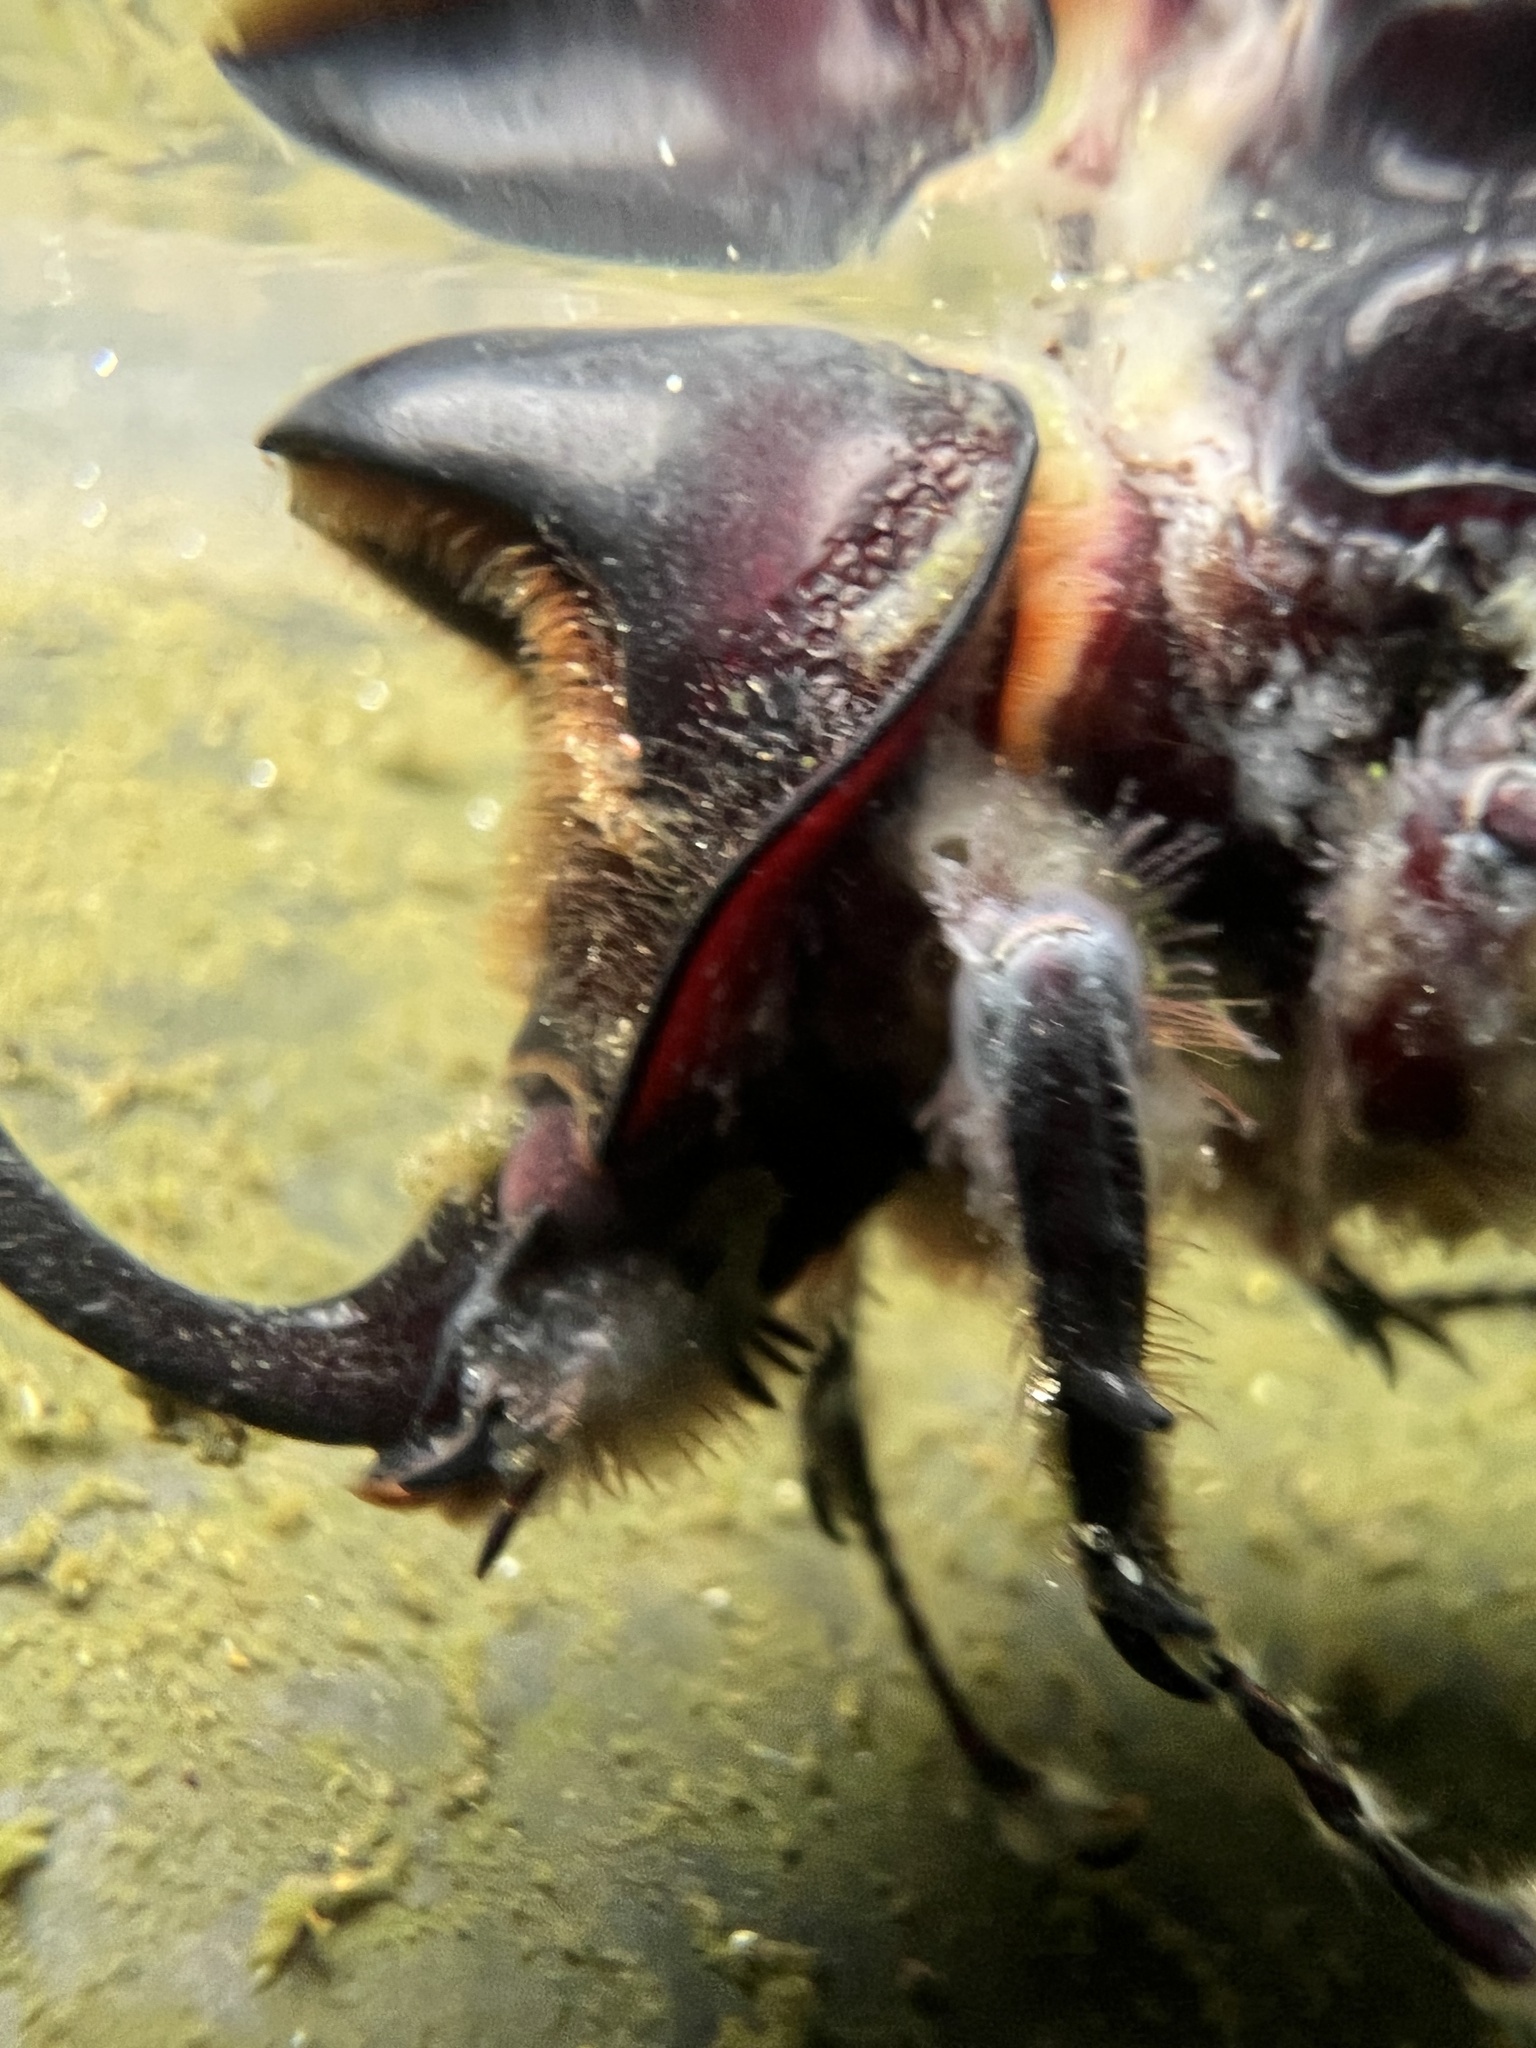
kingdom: Animalia
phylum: Arthropoda
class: Insecta
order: Coleoptera
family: Scarabaeidae
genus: Heterogomphus
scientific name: Heterogomphus schoenherri
